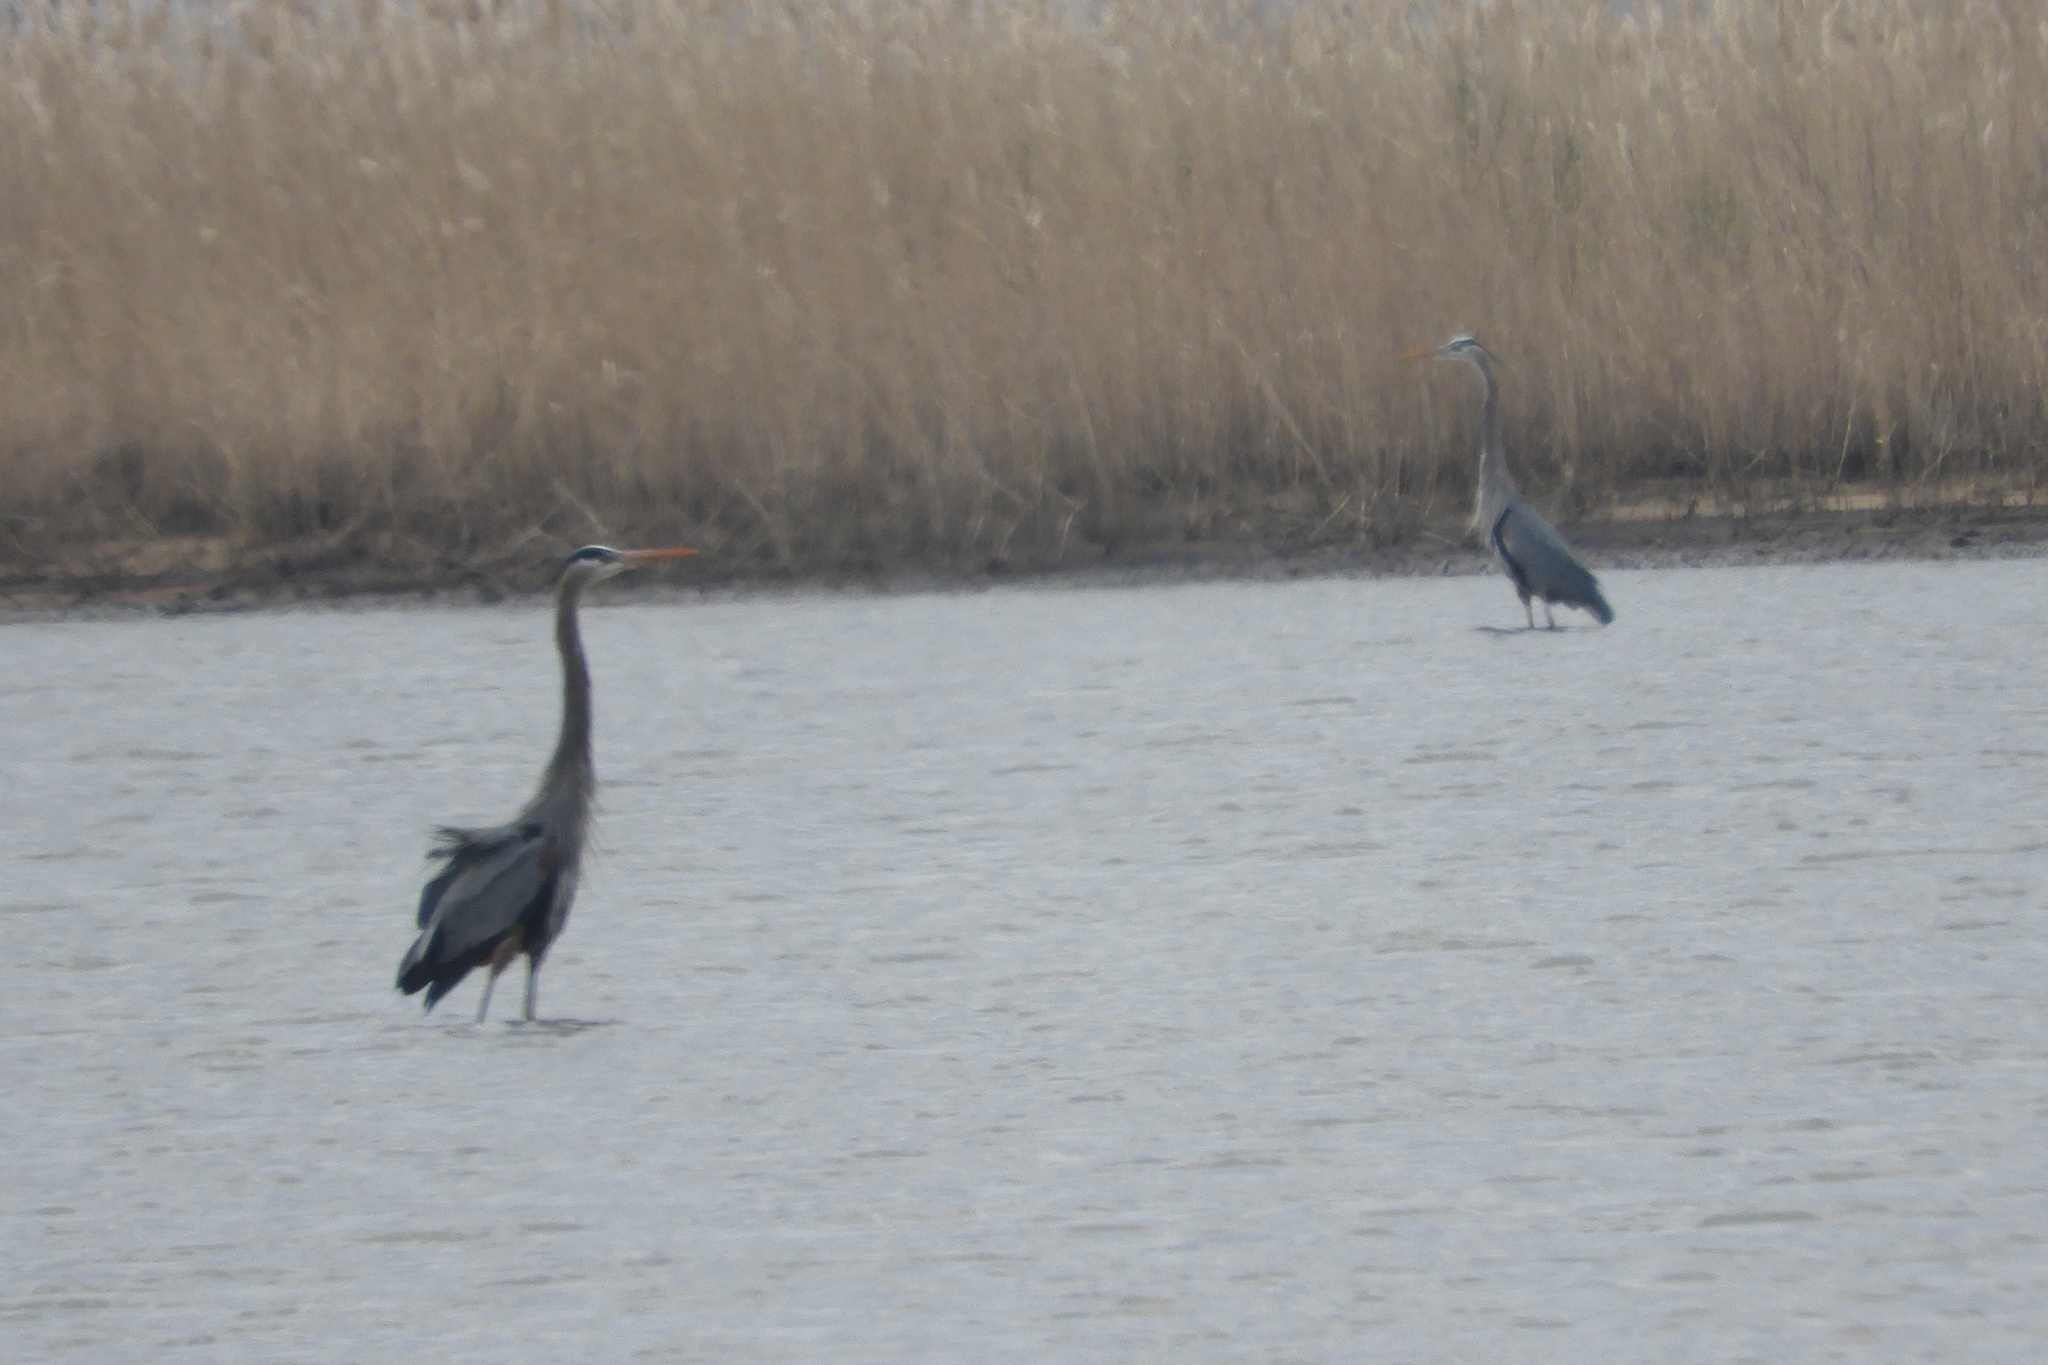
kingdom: Animalia
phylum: Chordata
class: Aves
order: Pelecaniformes
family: Ardeidae
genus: Ardea
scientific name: Ardea herodias
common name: Great blue heron
